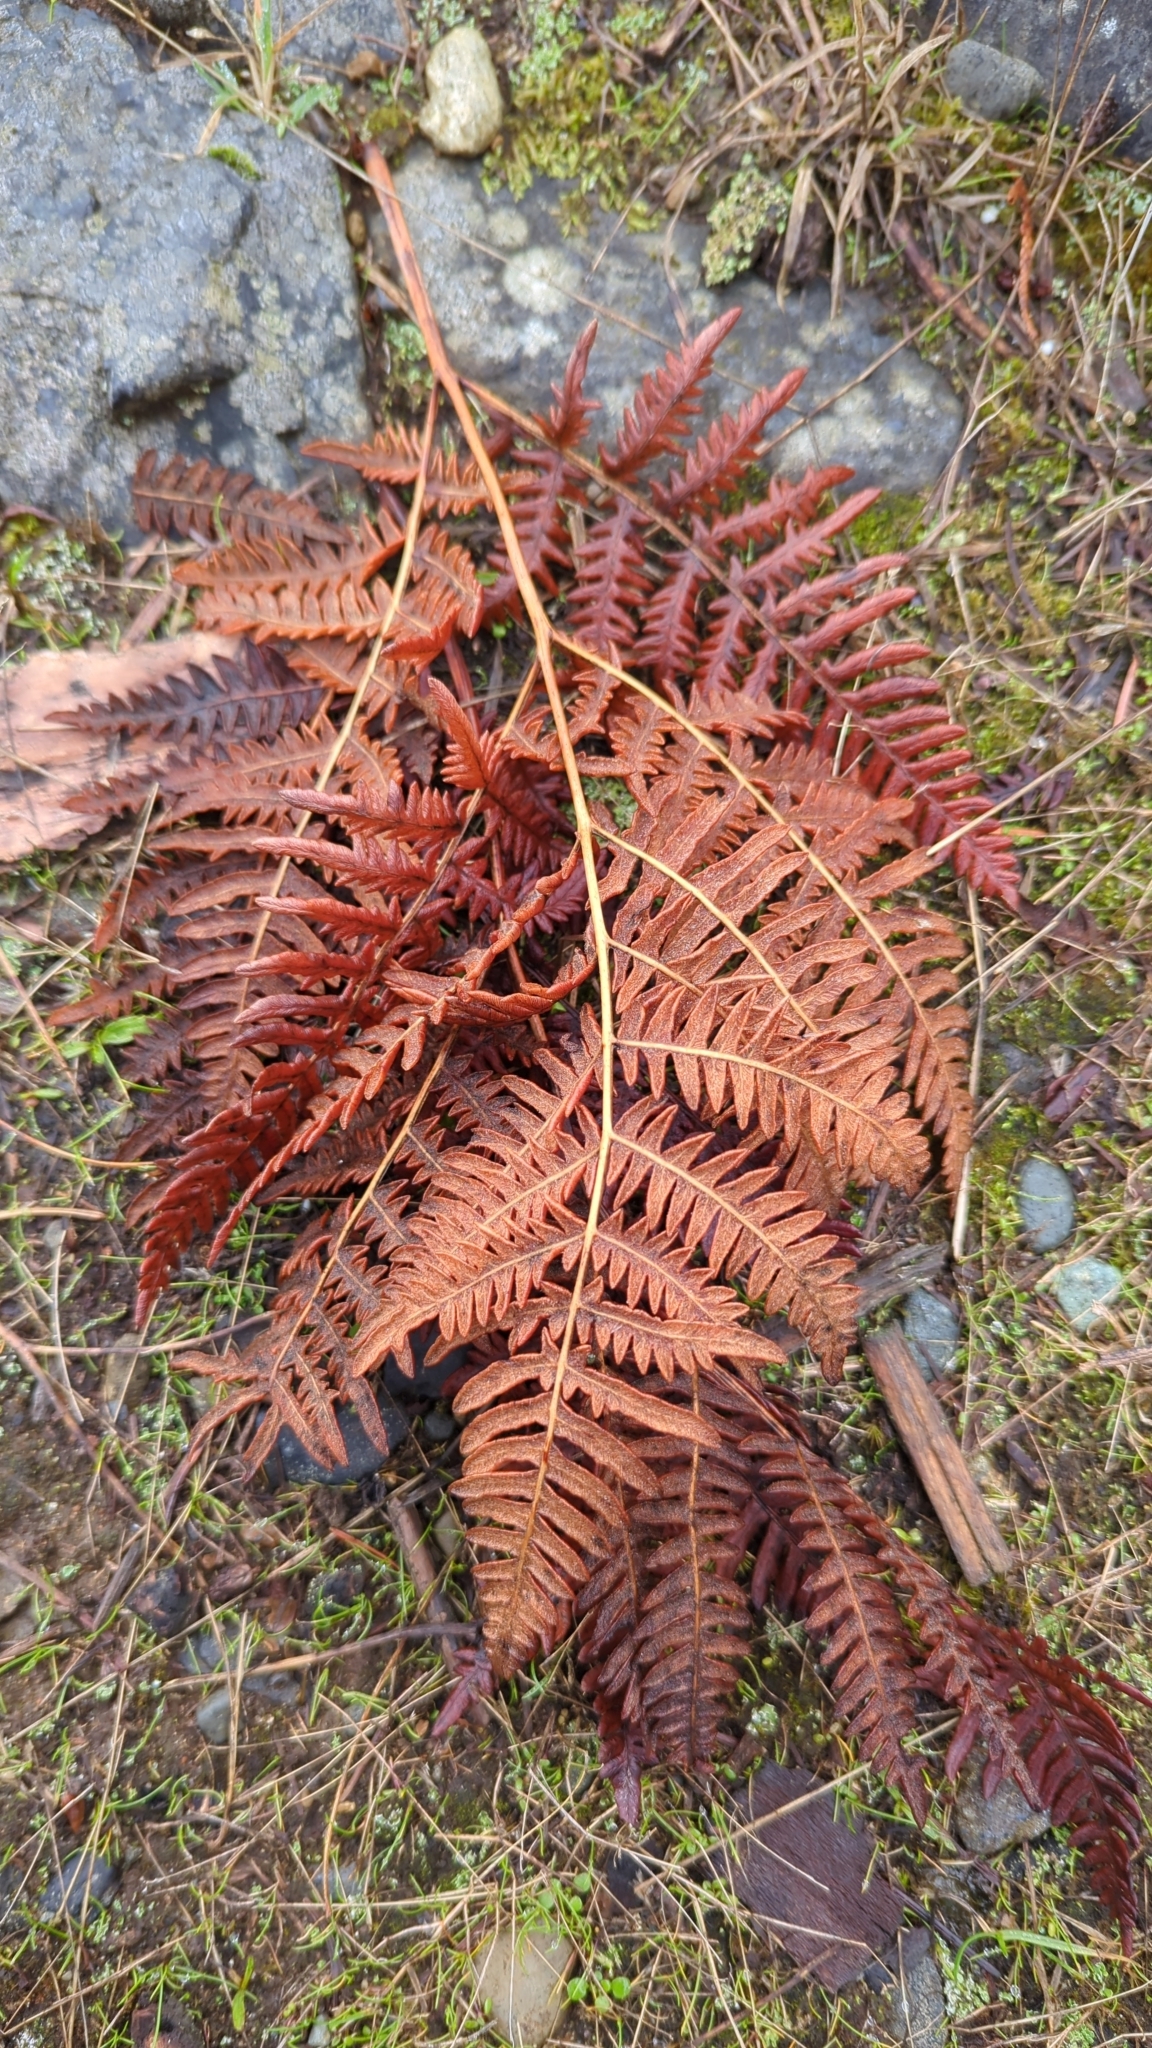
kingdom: Plantae
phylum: Tracheophyta
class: Polypodiopsida
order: Polypodiales
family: Dennstaedtiaceae
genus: Pteridium
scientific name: Pteridium aquilinum
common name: Bracken
